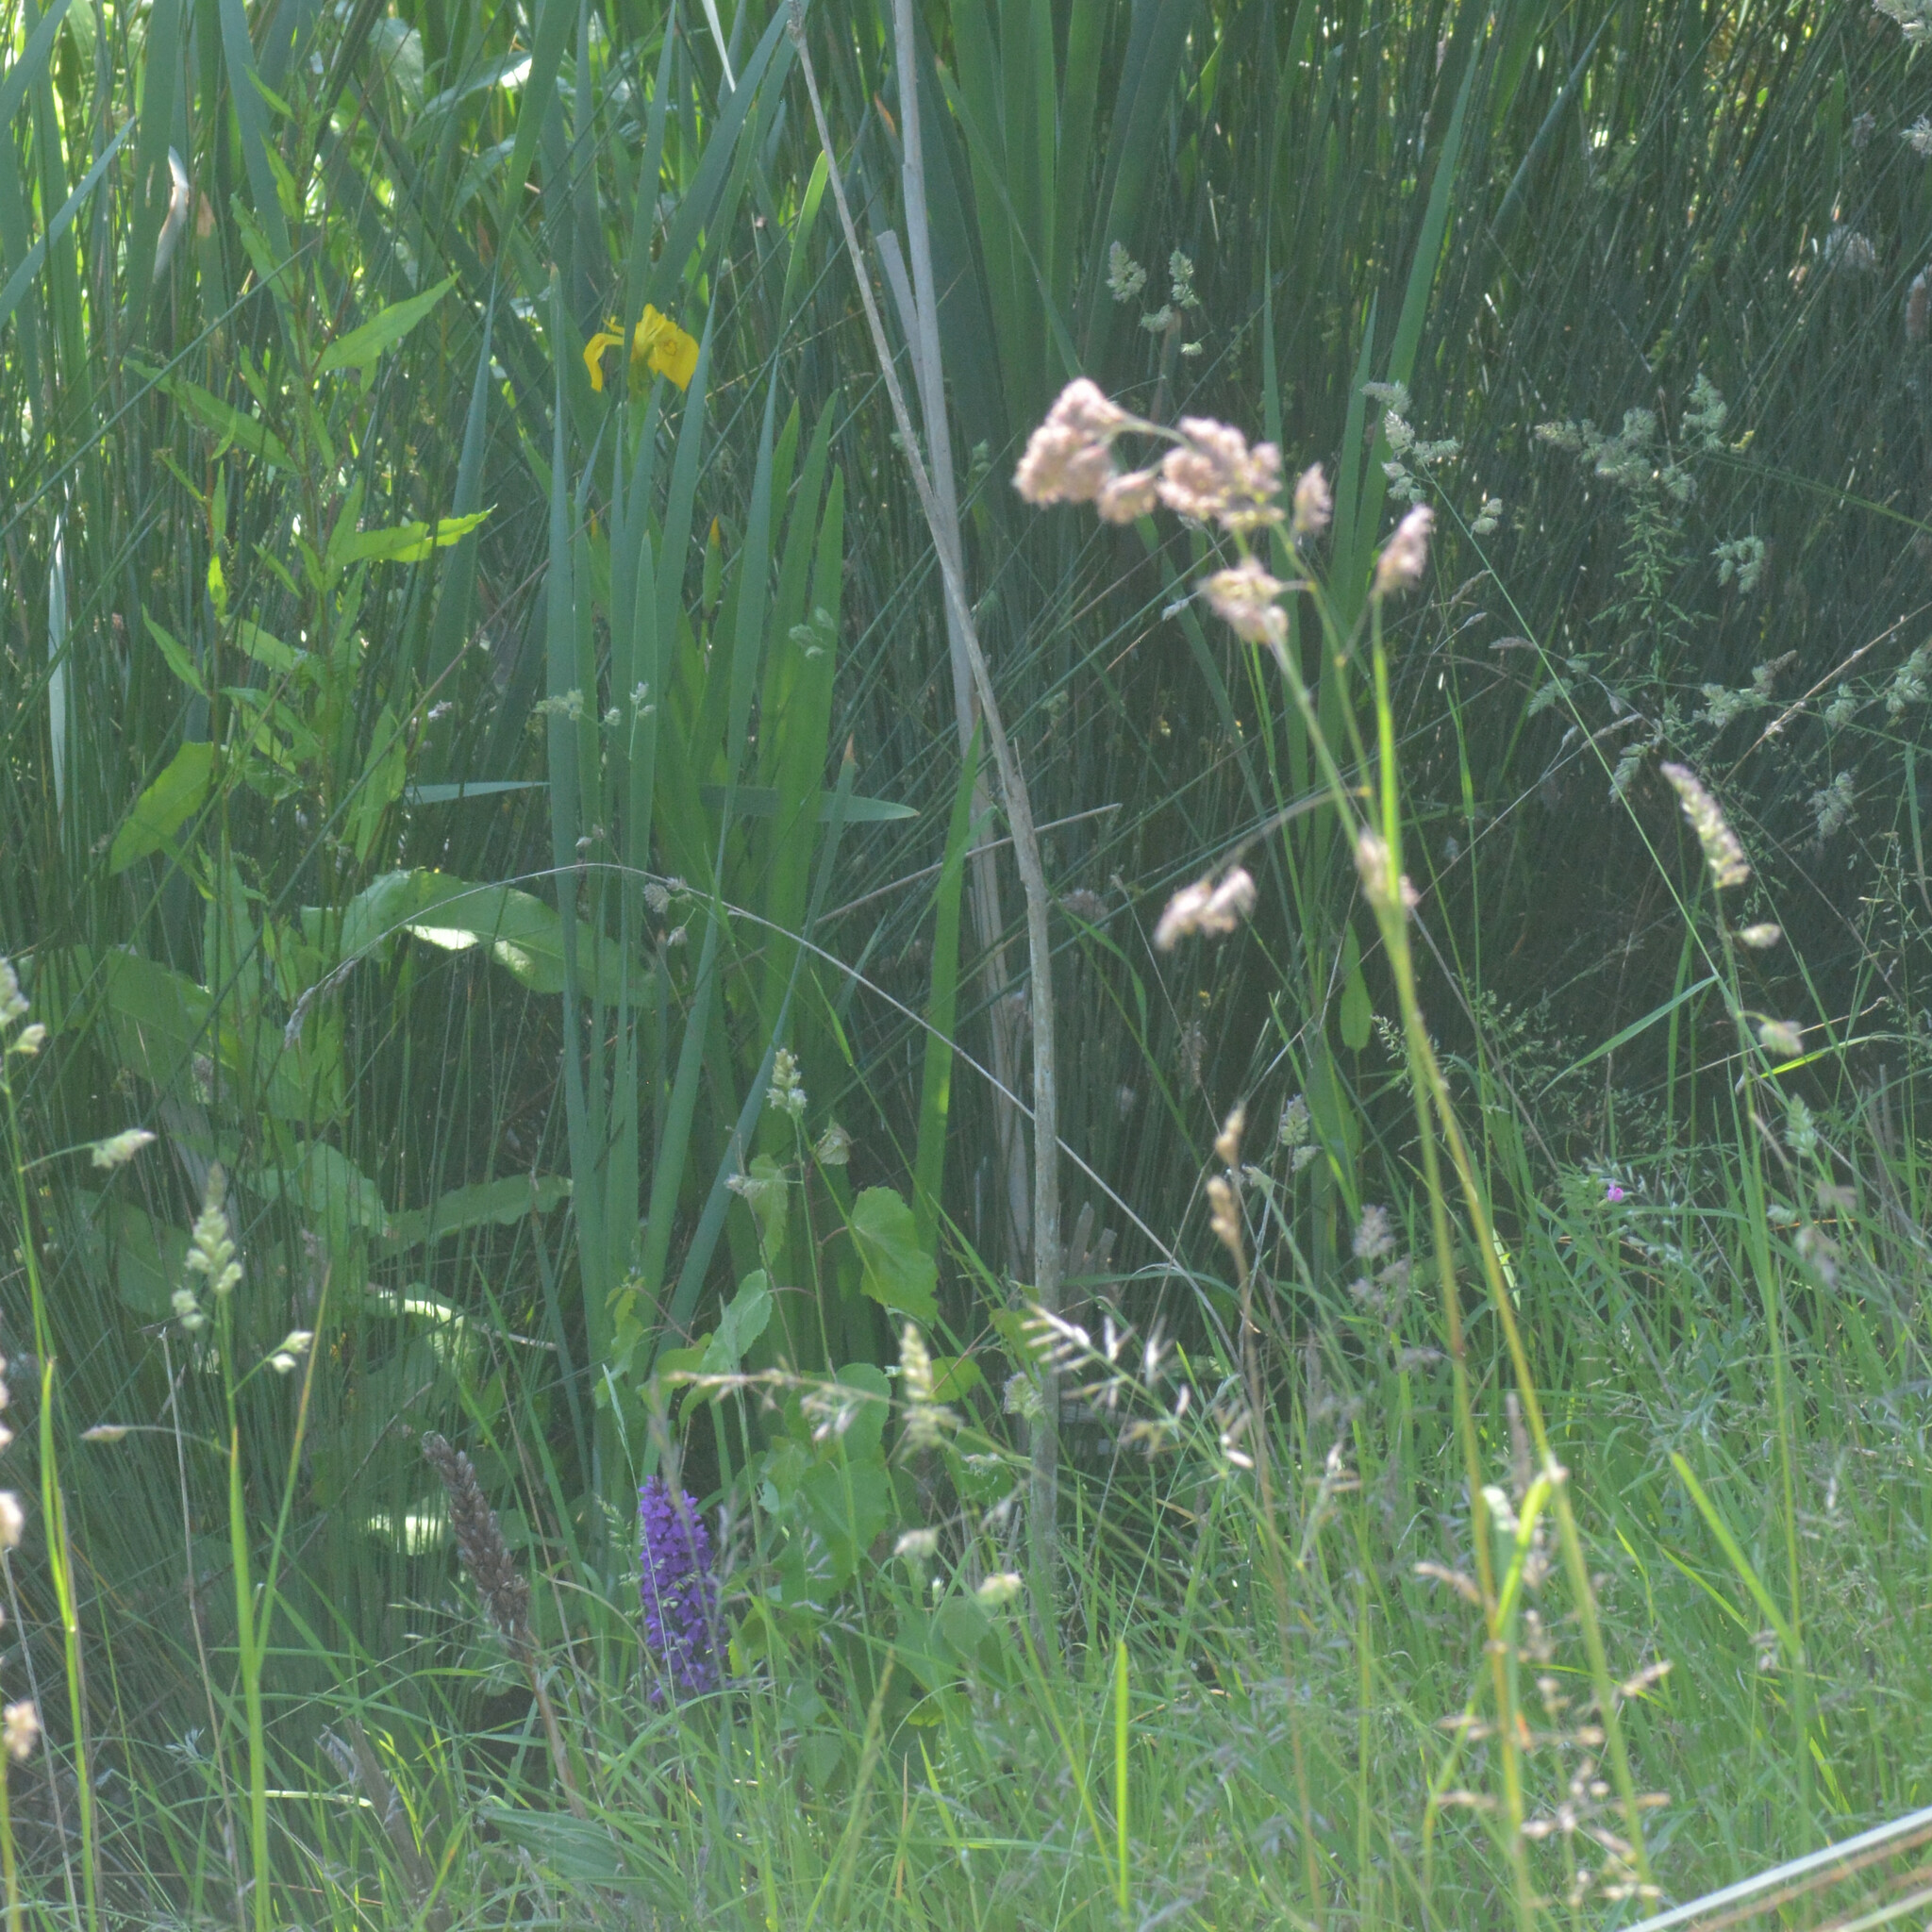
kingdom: Plantae
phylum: Tracheophyta
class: Liliopsida
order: Asparagales
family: Iridaceae
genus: Iris
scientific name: Iris pseudacorus
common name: Yellow flag
